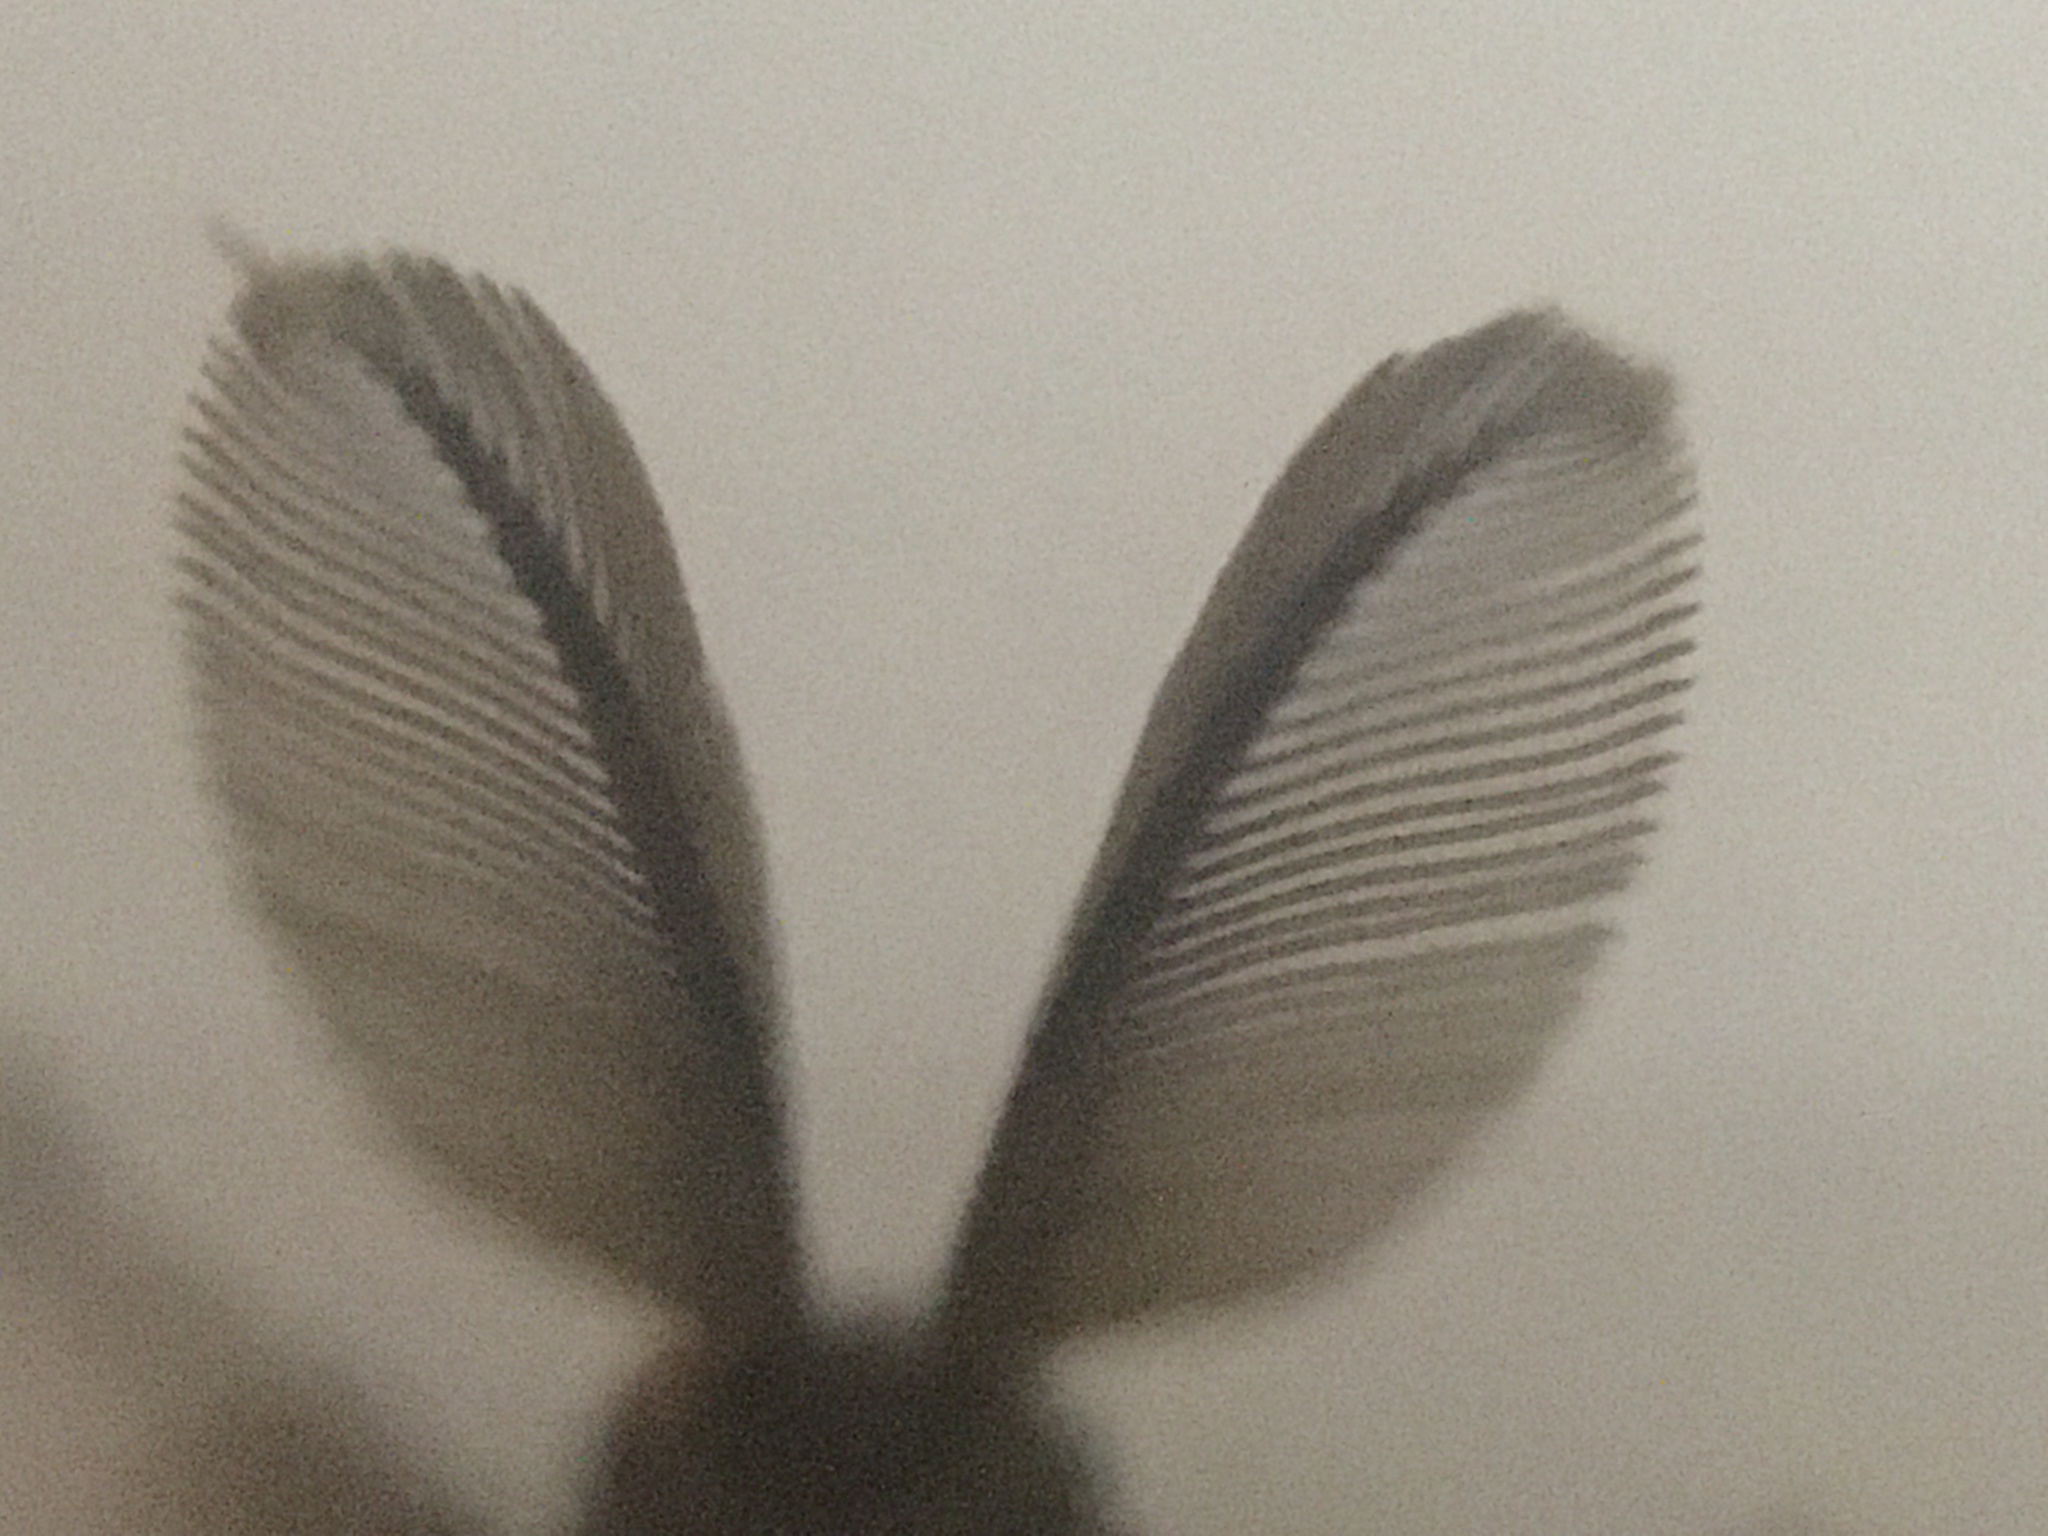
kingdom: Animalia
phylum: Arthropoda
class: Insecta
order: Lepidoptera
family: Erebidae
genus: Lymantria
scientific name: Lymantria dispar
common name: Gypsy moth
